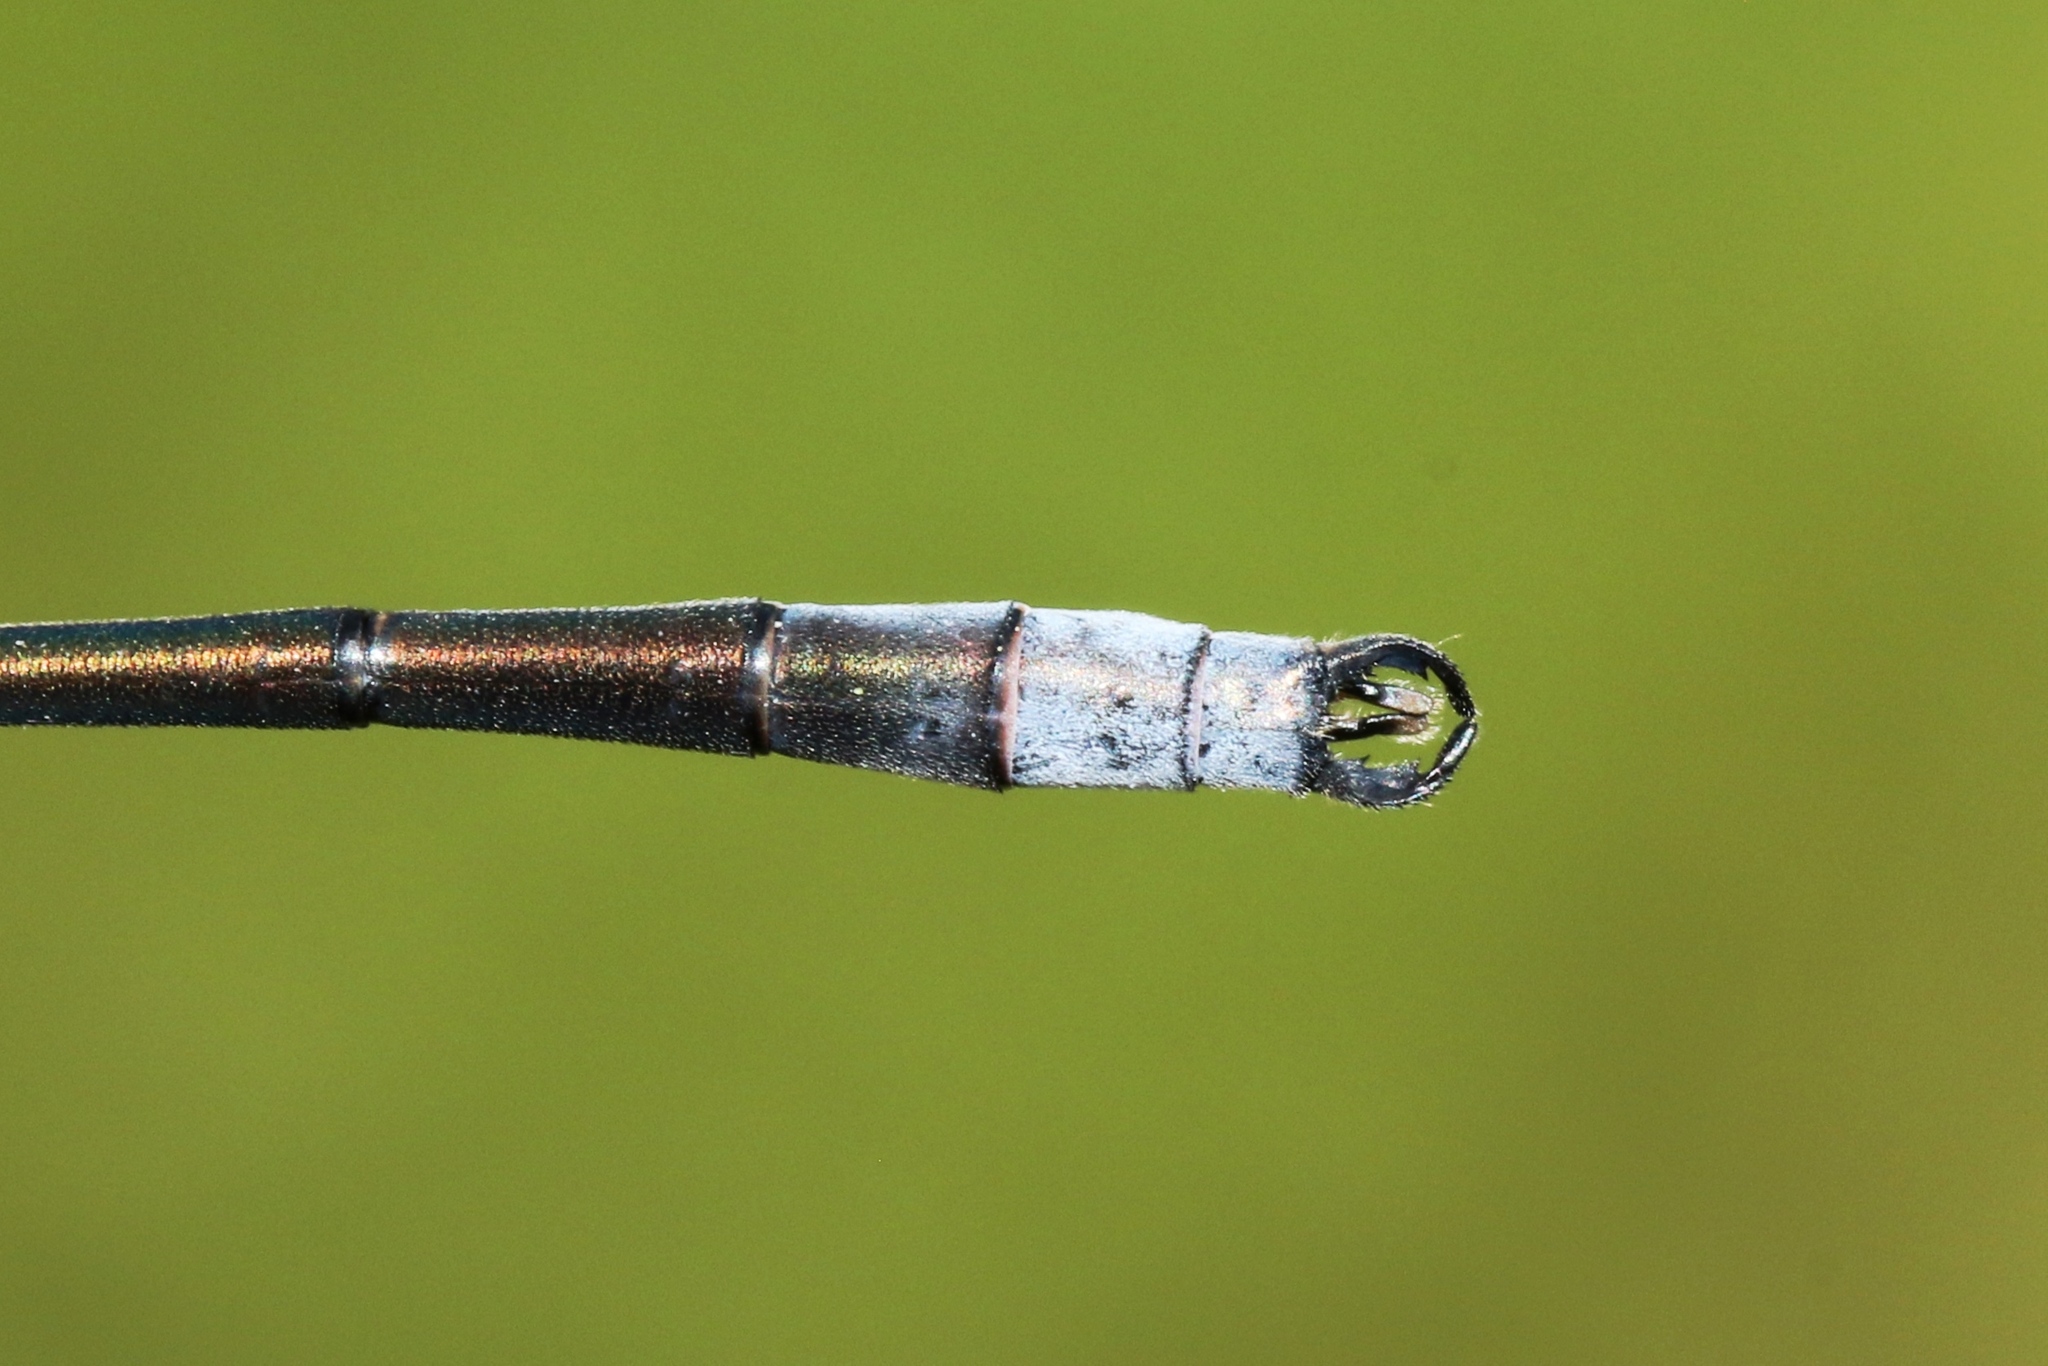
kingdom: Animalia
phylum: Arthropoda
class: Insecta
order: Odonata
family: Lestidae
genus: Lestes
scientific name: Lestes disjunctus
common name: Northern spreadwing
